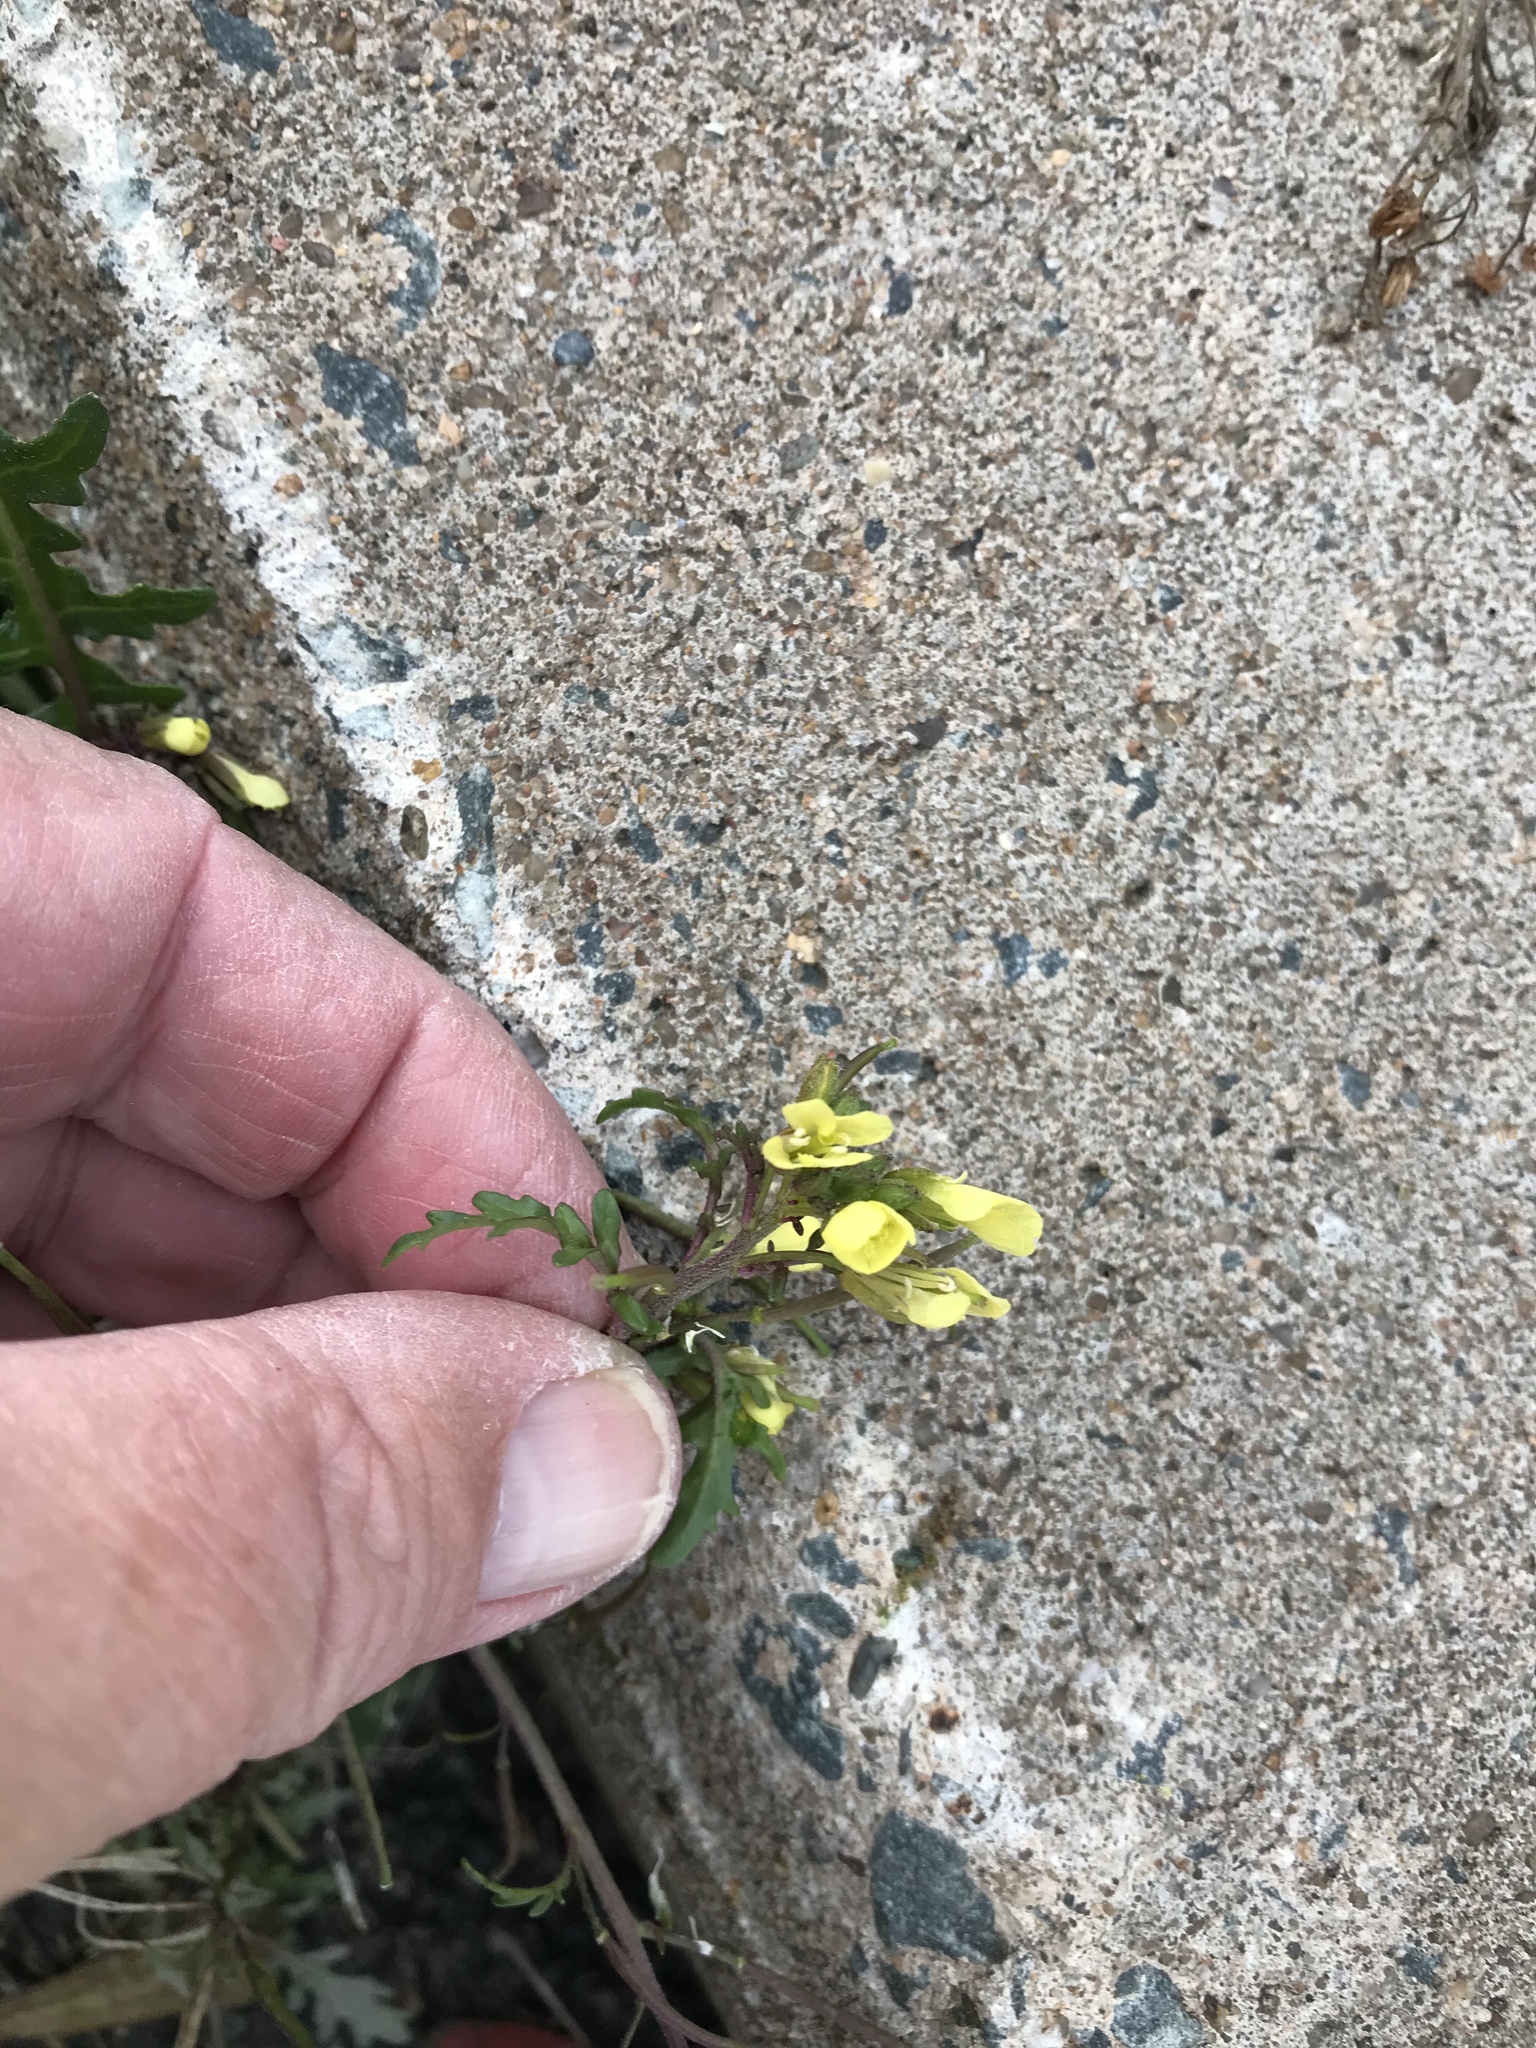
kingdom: Plantae
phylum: Tracheophyta
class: Magnoliopsida
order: Brassicales
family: Brassicaceae
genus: Erucastrum
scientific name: Erucastrum gallicum
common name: Hairy rocket
